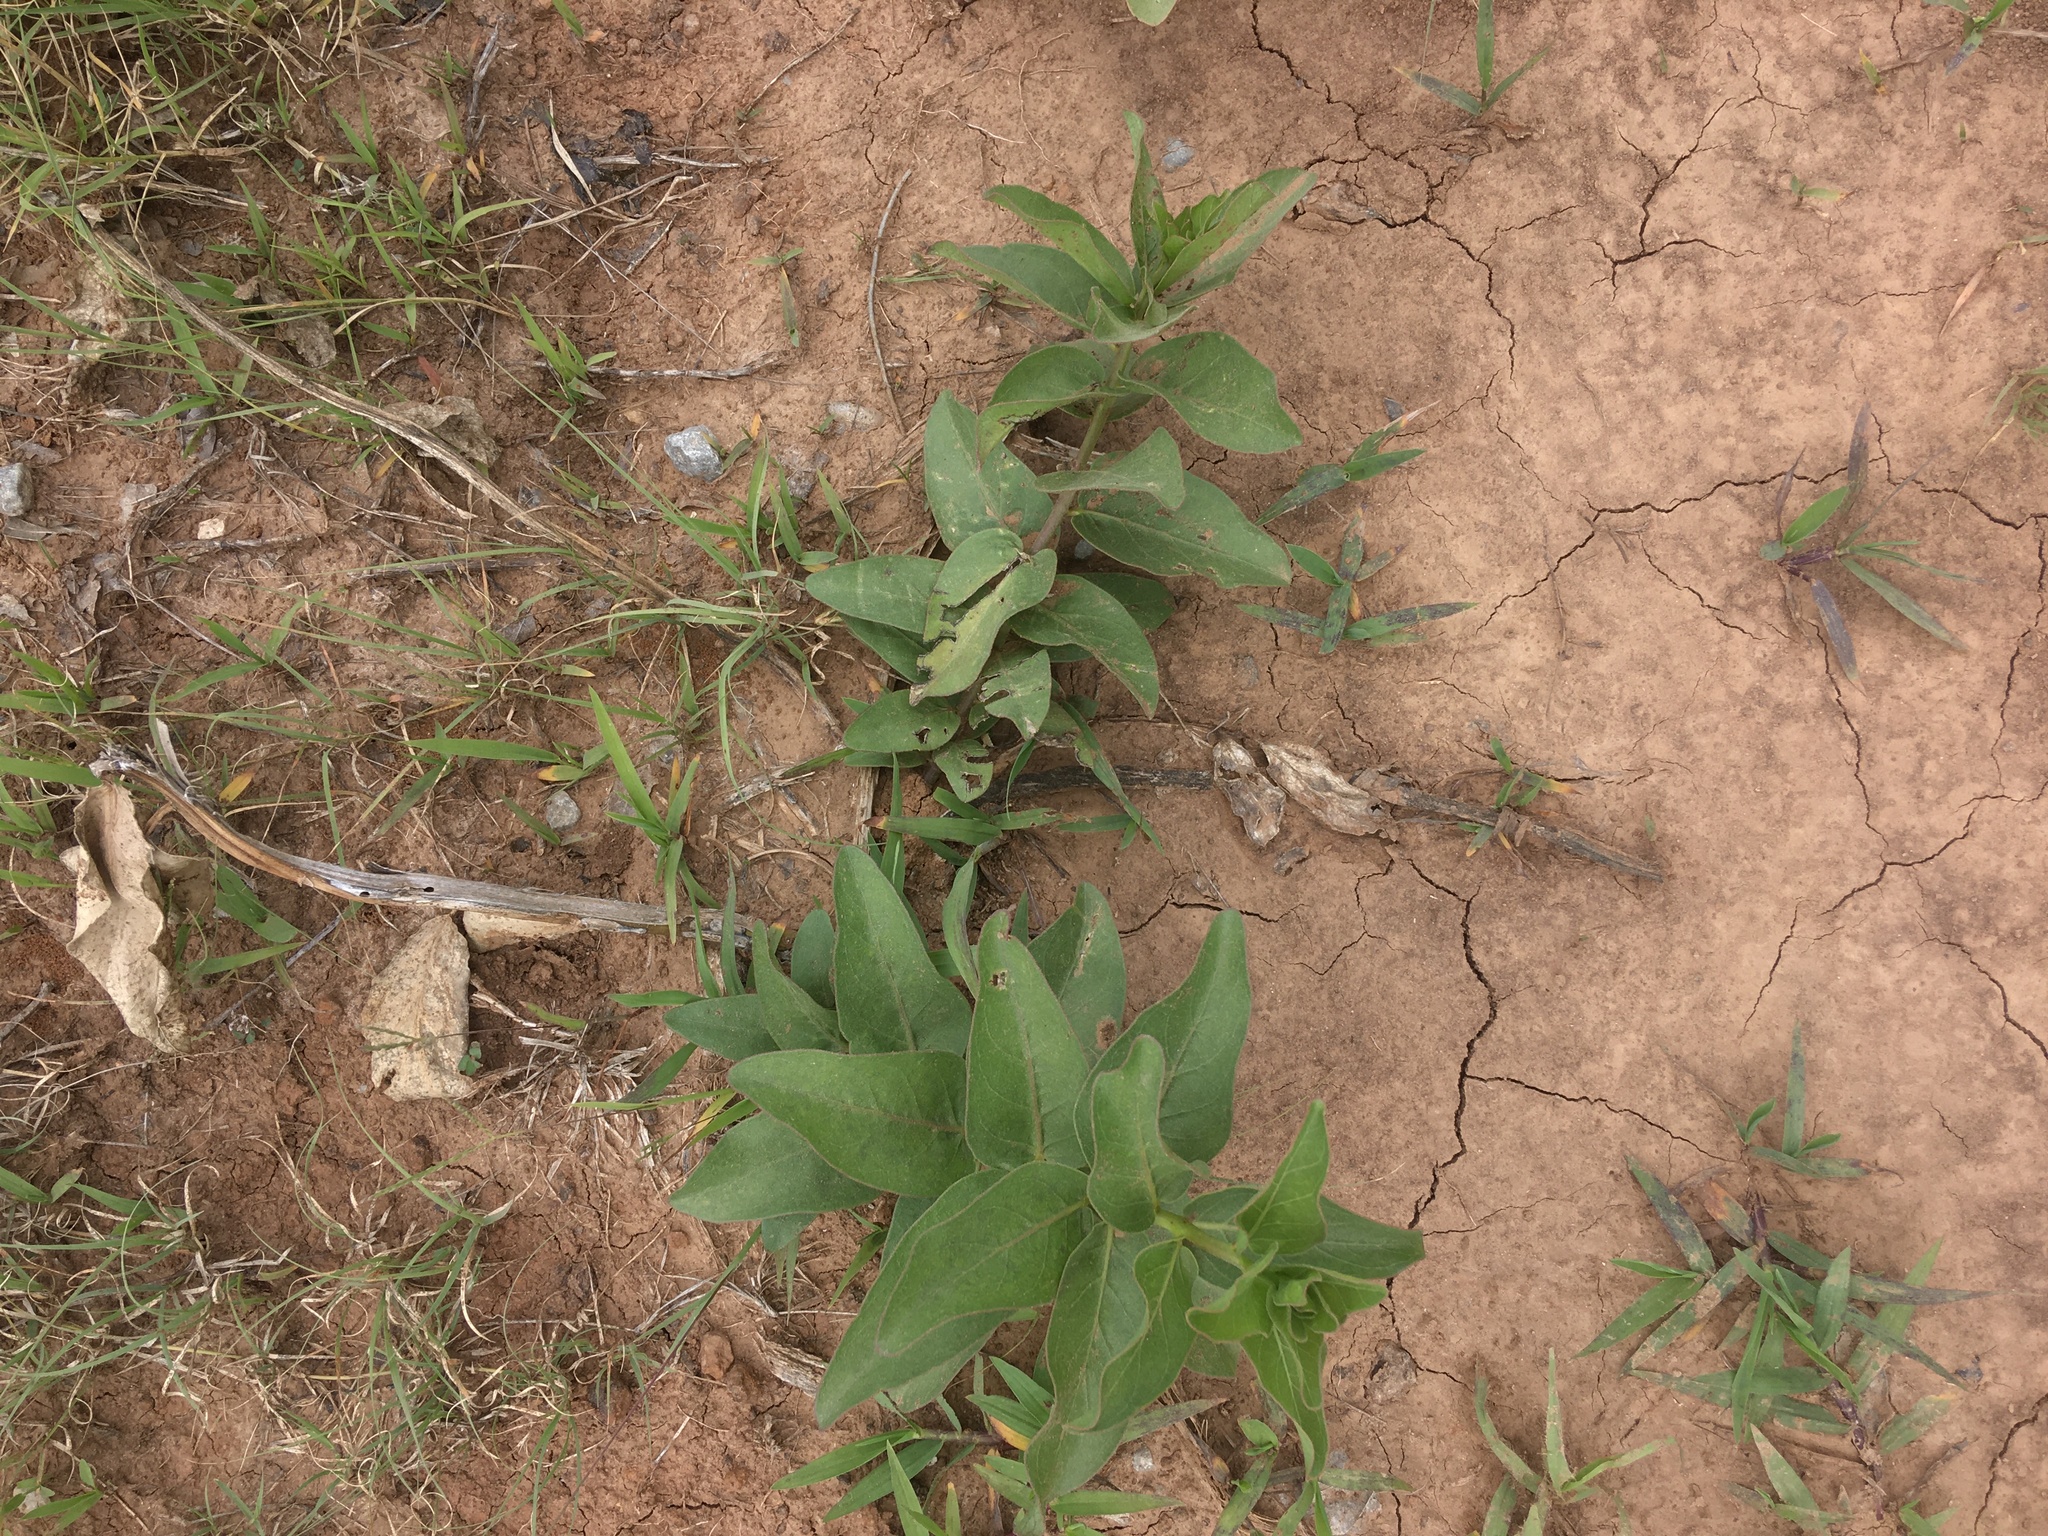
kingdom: Plantae
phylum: Tracheophyta
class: Magnoliopsida
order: Gentianales
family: Apocynaceae
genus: Asclepias
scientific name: Asclepias viridis
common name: Antelope-horns
